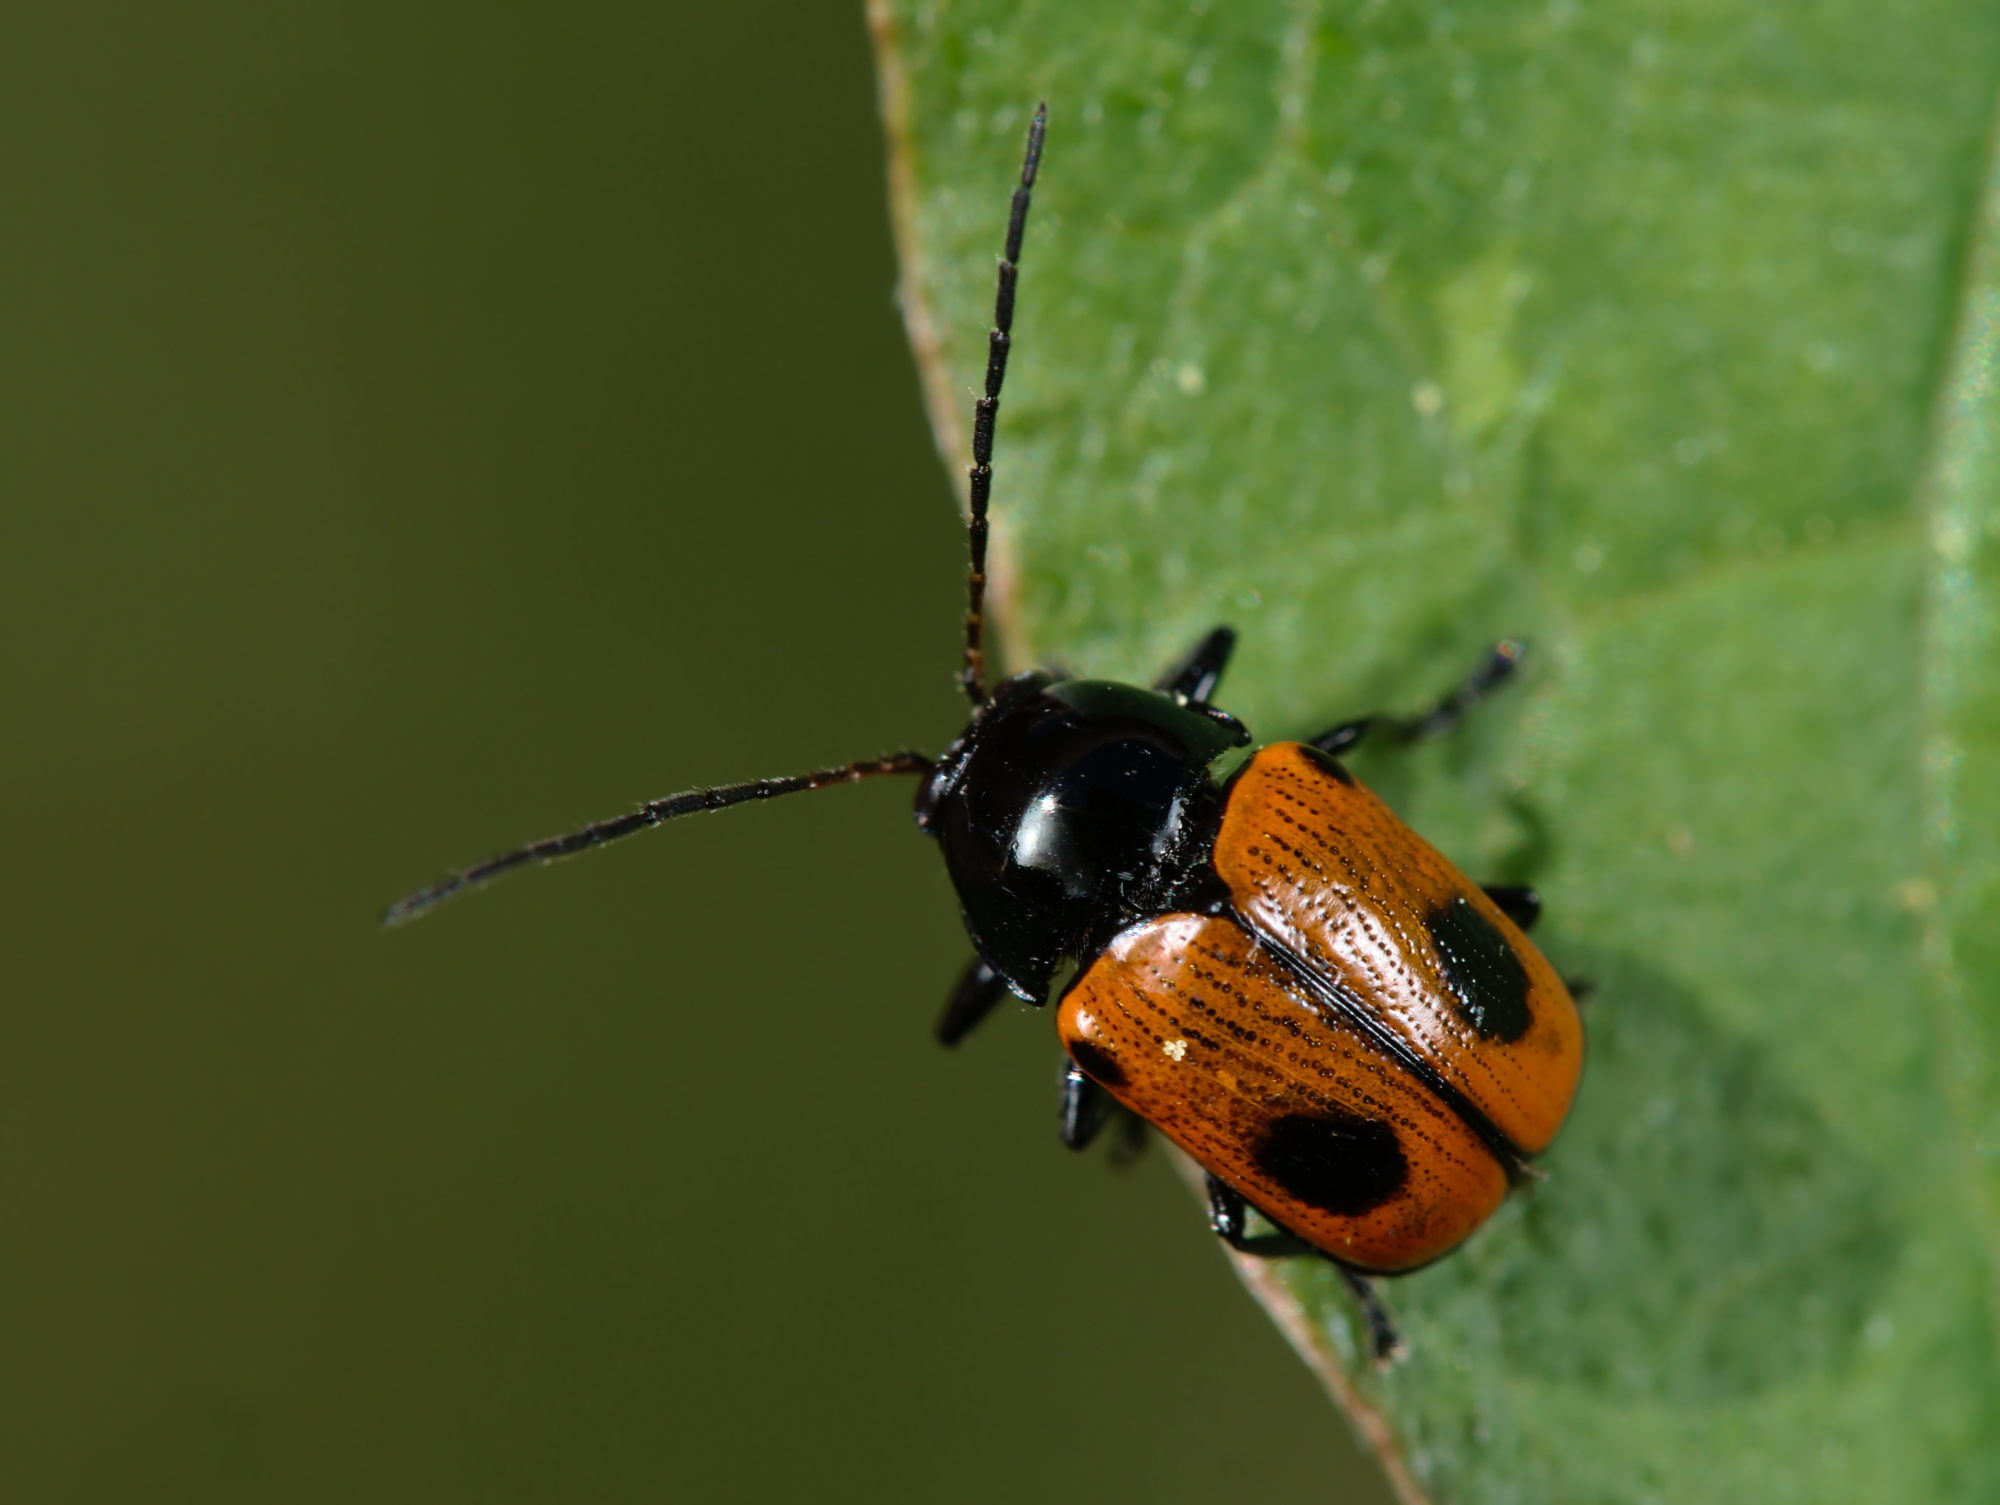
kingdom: Animalia
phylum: Arthropoda
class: Insecta
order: Coleoptera
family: Chrysomelidae
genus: Chiridopsis
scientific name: Chiridopsis bipunctata
